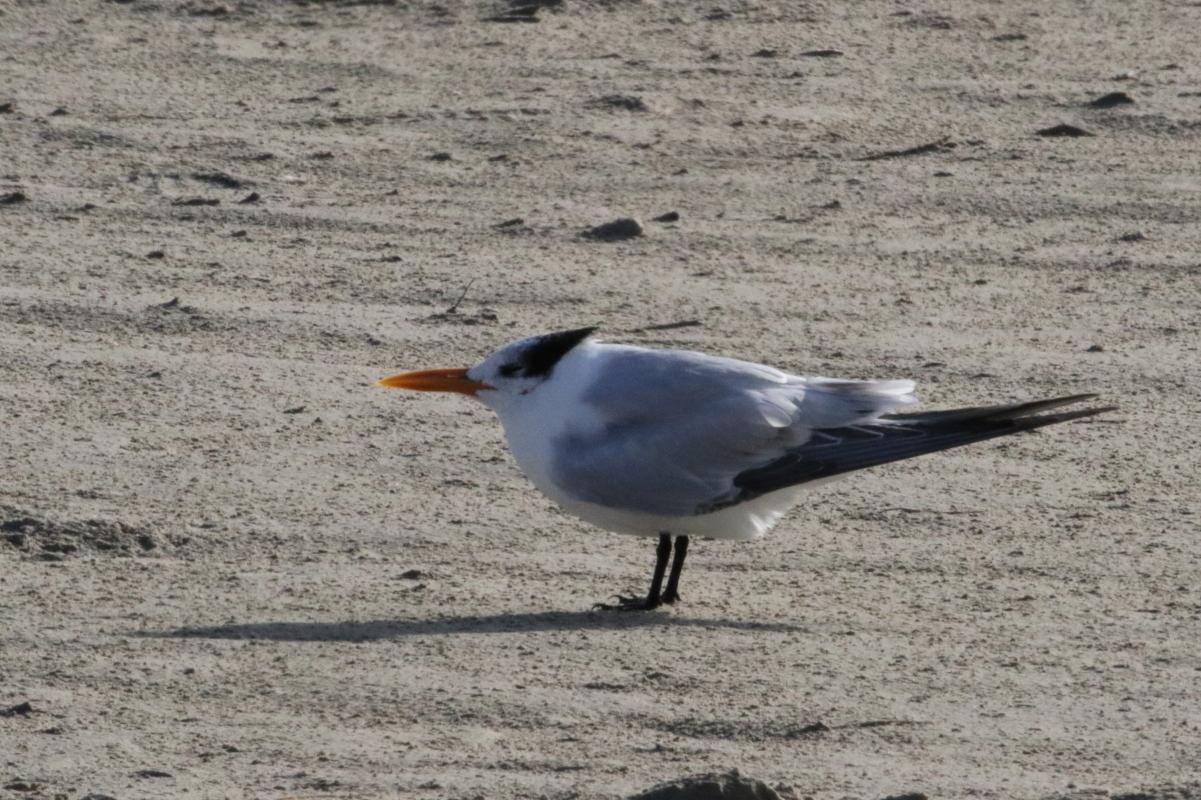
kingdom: Animalia
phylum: Chordata
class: Aves
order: Charadriiformes
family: Laridae
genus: Thalasseus
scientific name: Thalasseus maximus
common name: Royal tern
